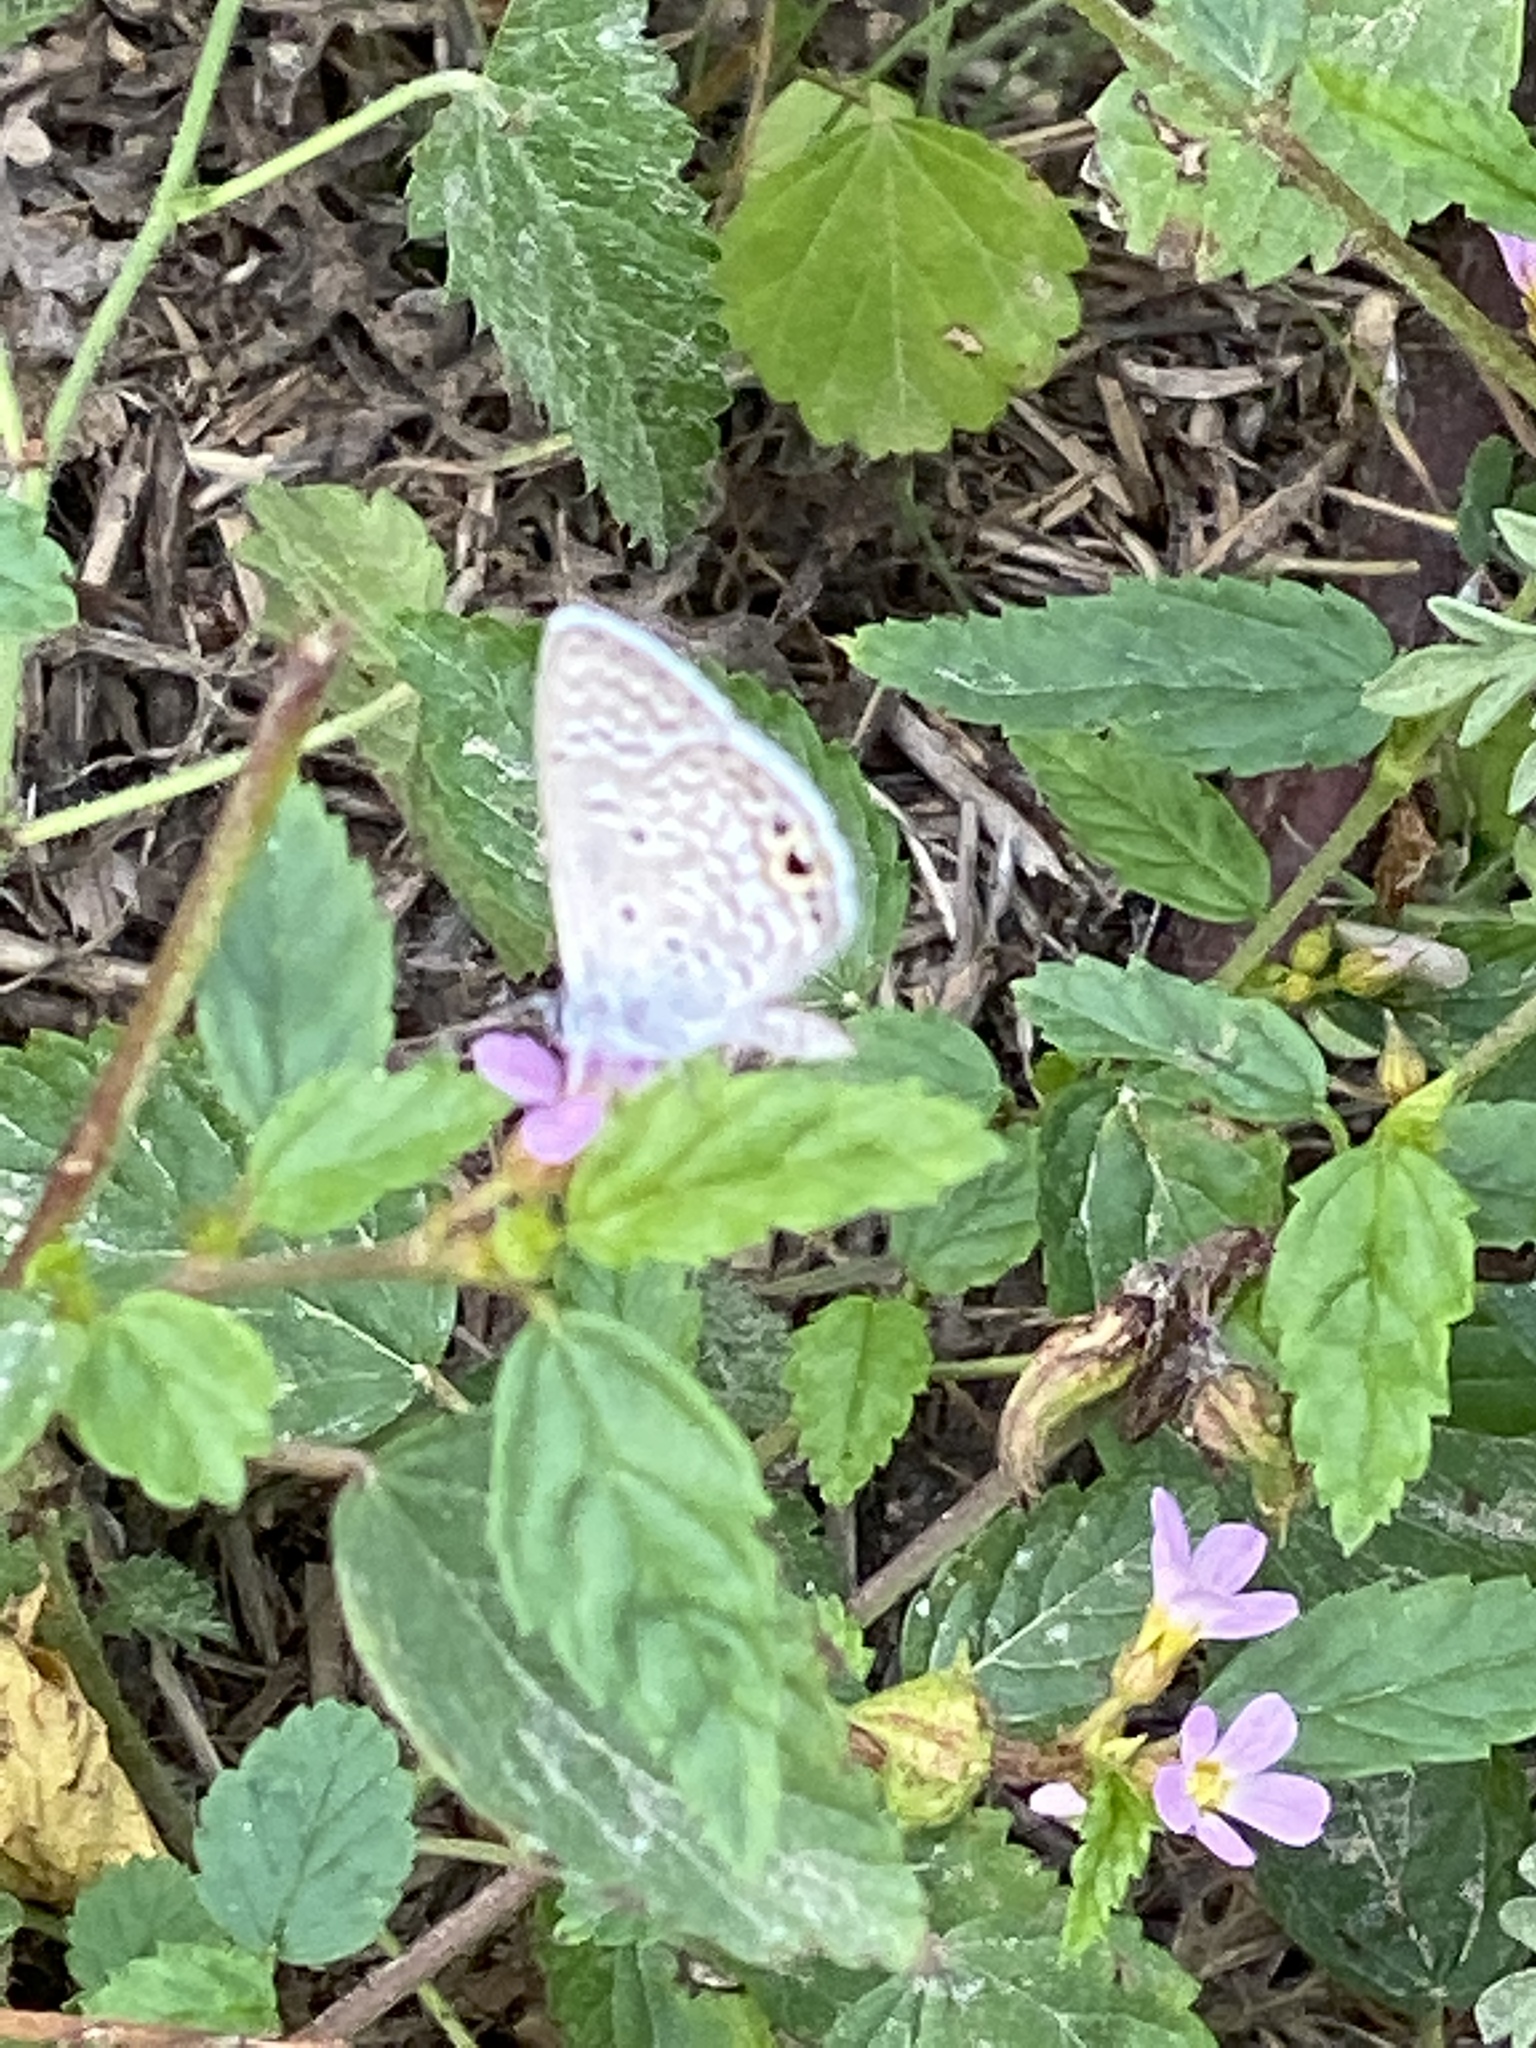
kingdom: Animalia
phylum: Arthropoda
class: Insecta
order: Lepidoptera
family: Lycaenidae
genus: Hemiargus
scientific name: Hemiargus ceraunus
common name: Ceraunus blue
